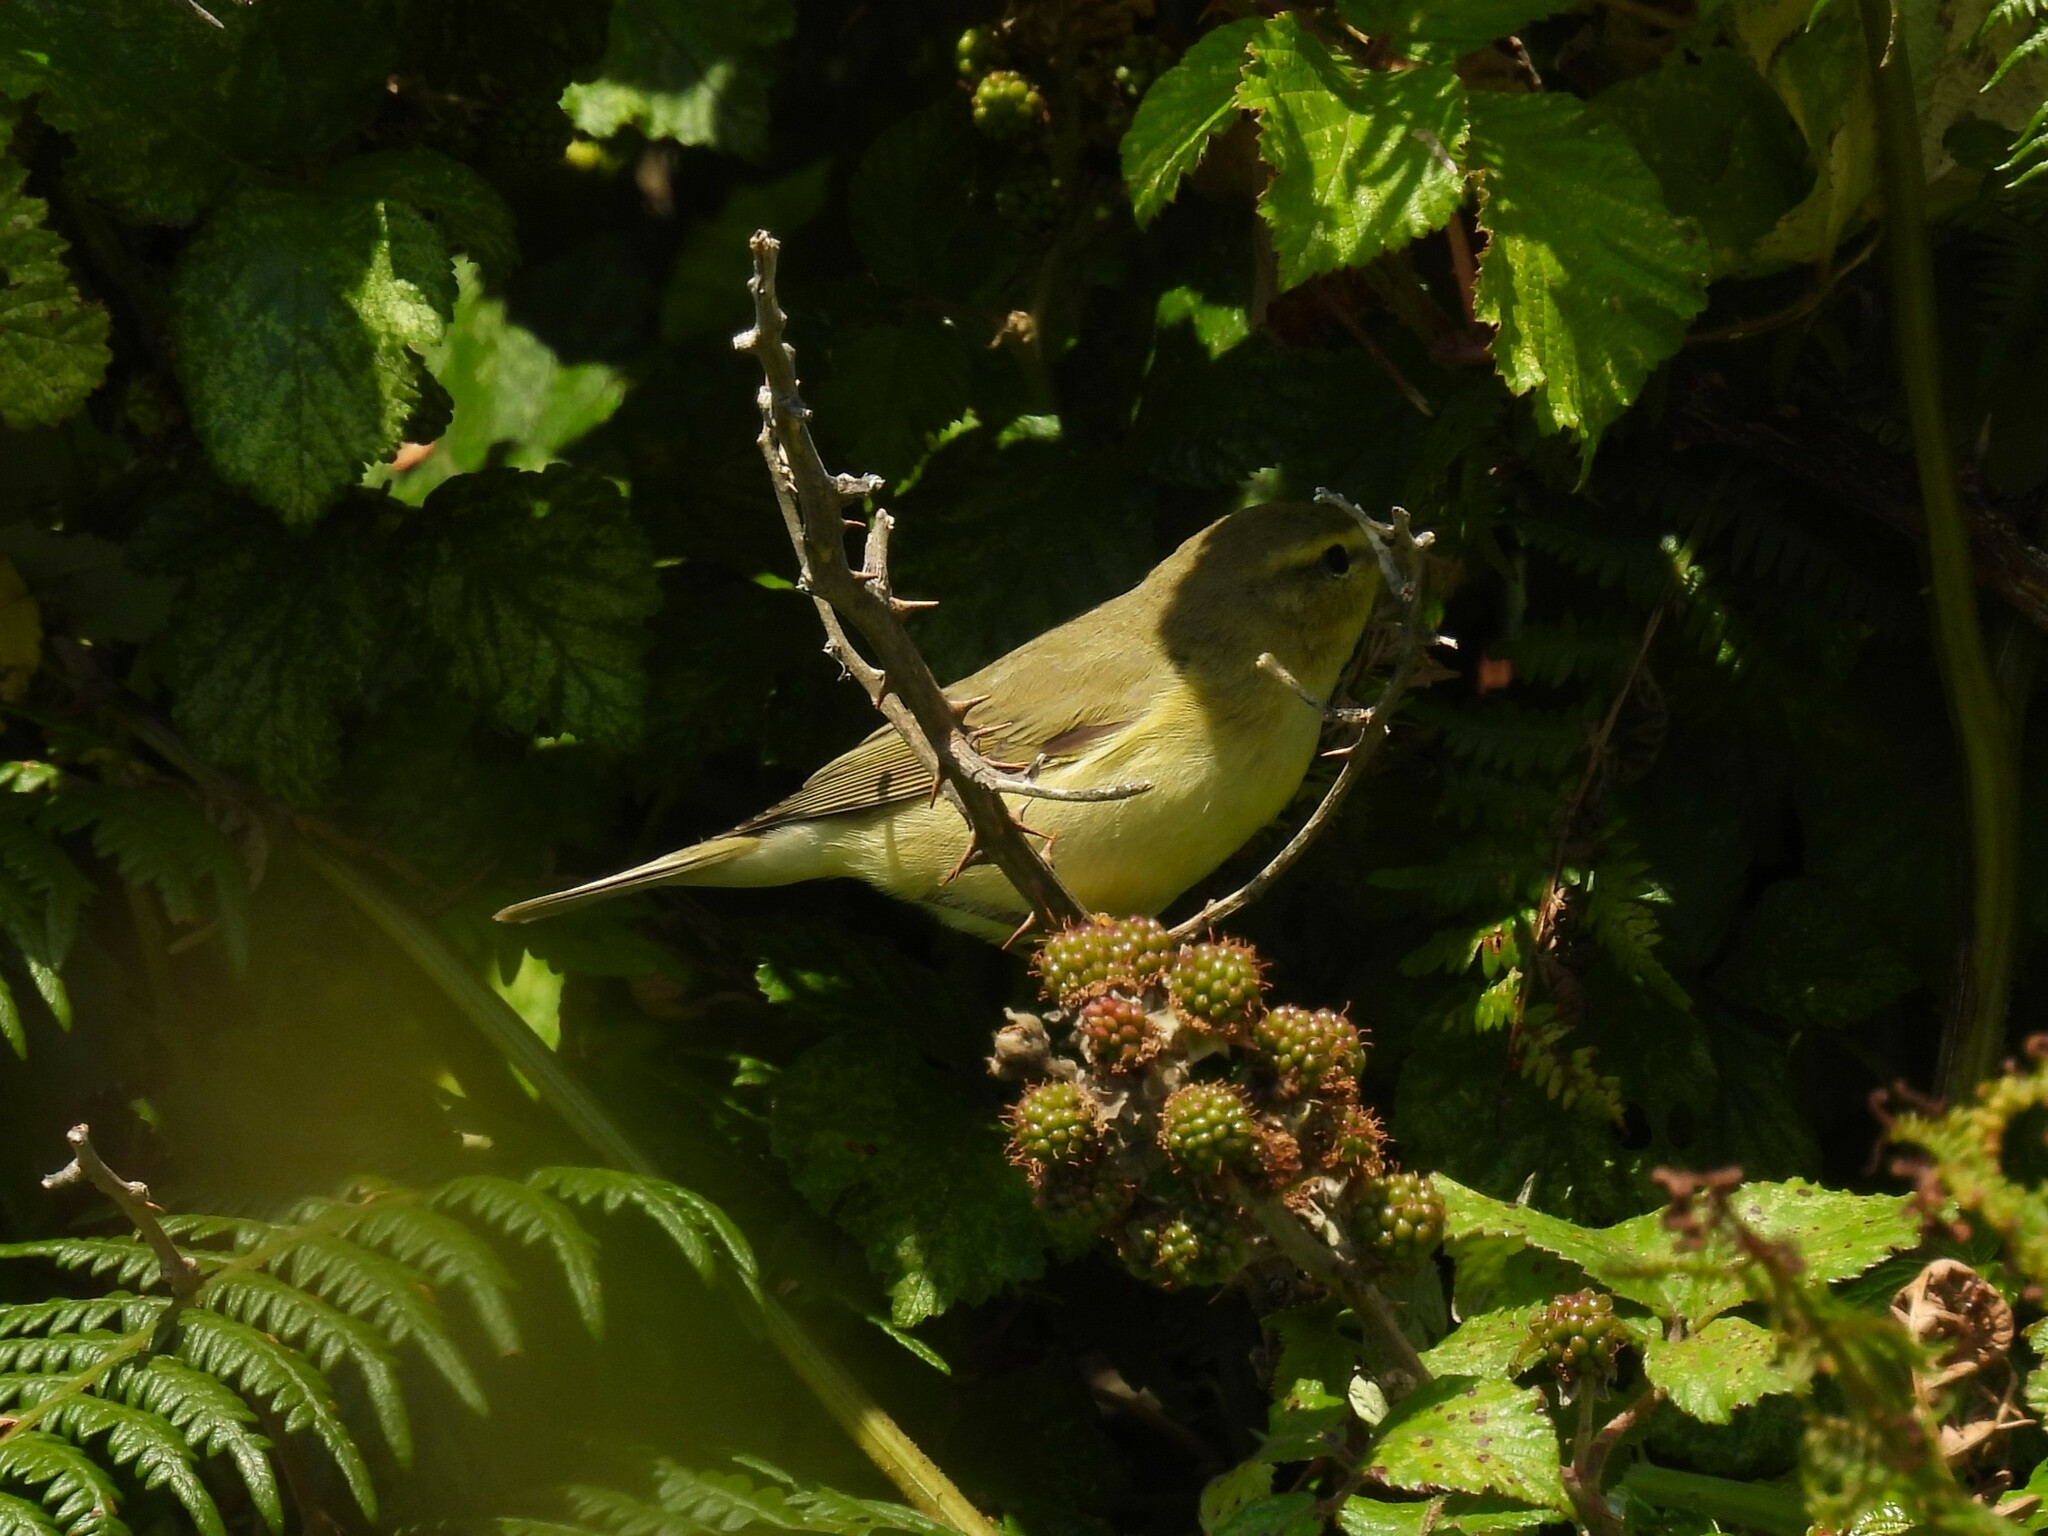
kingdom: Animalia
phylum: Chordata
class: Aves
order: Passeriformes
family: Phylloscopidae
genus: Phylloscopus
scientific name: Phylloscopus trochilus
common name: Willow warbler
